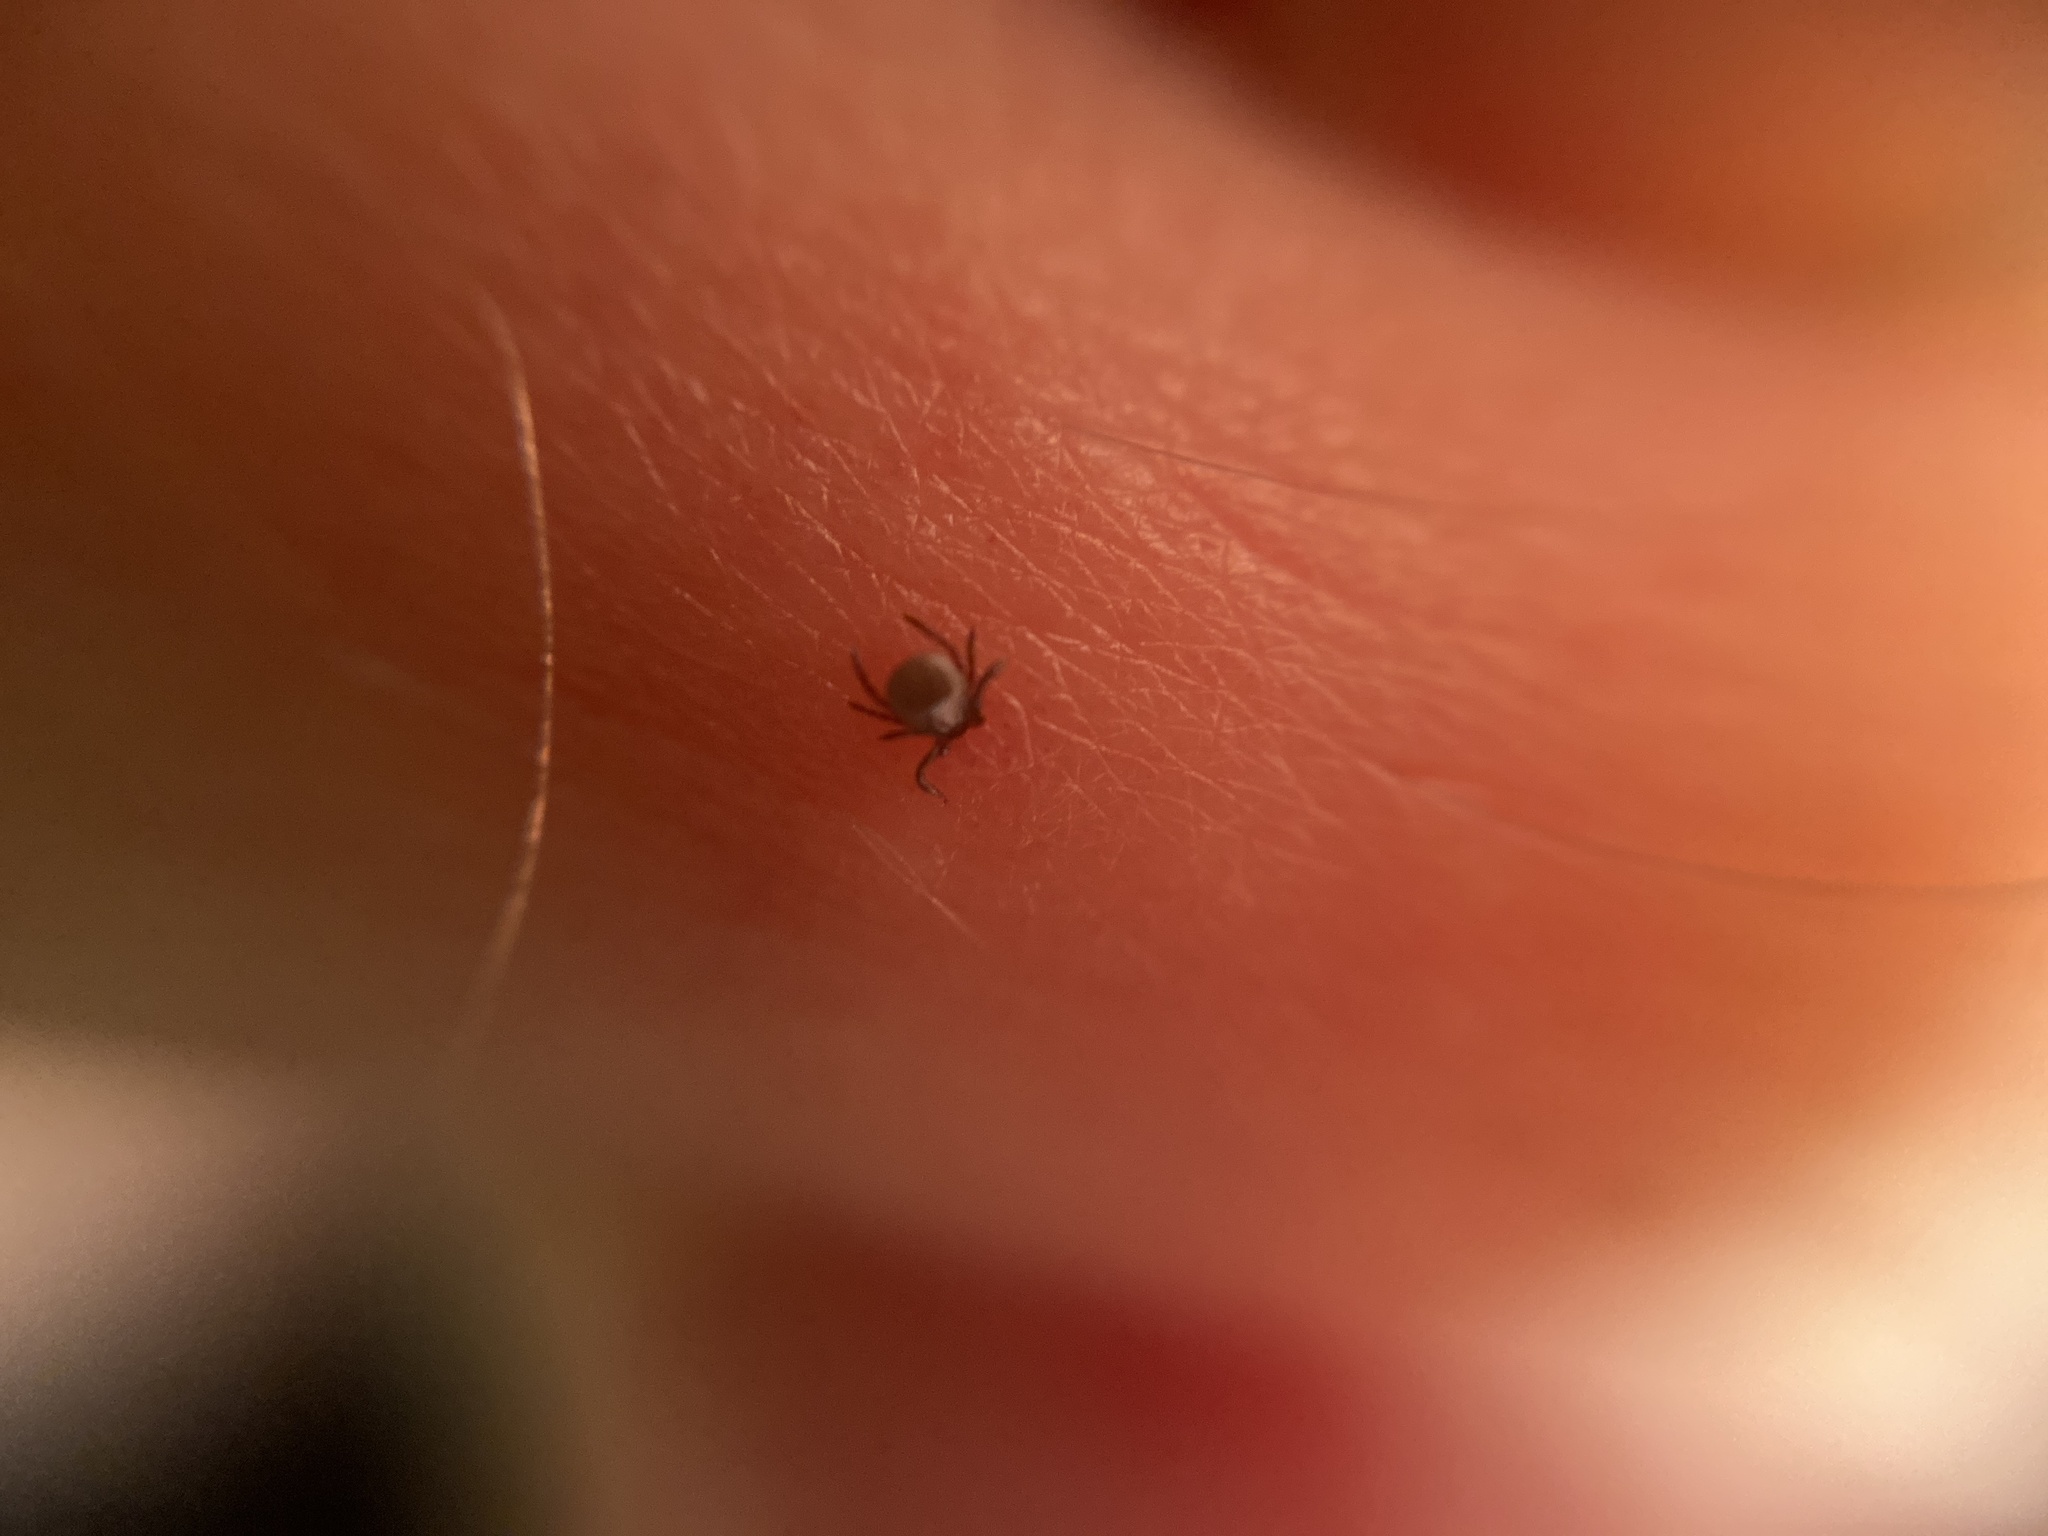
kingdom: Animalia
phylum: Arthropoda
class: Arachnida
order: Ixodida
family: Ixodidae
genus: Ixodes
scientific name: Ixodes ricinus
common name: Castor bean tick
